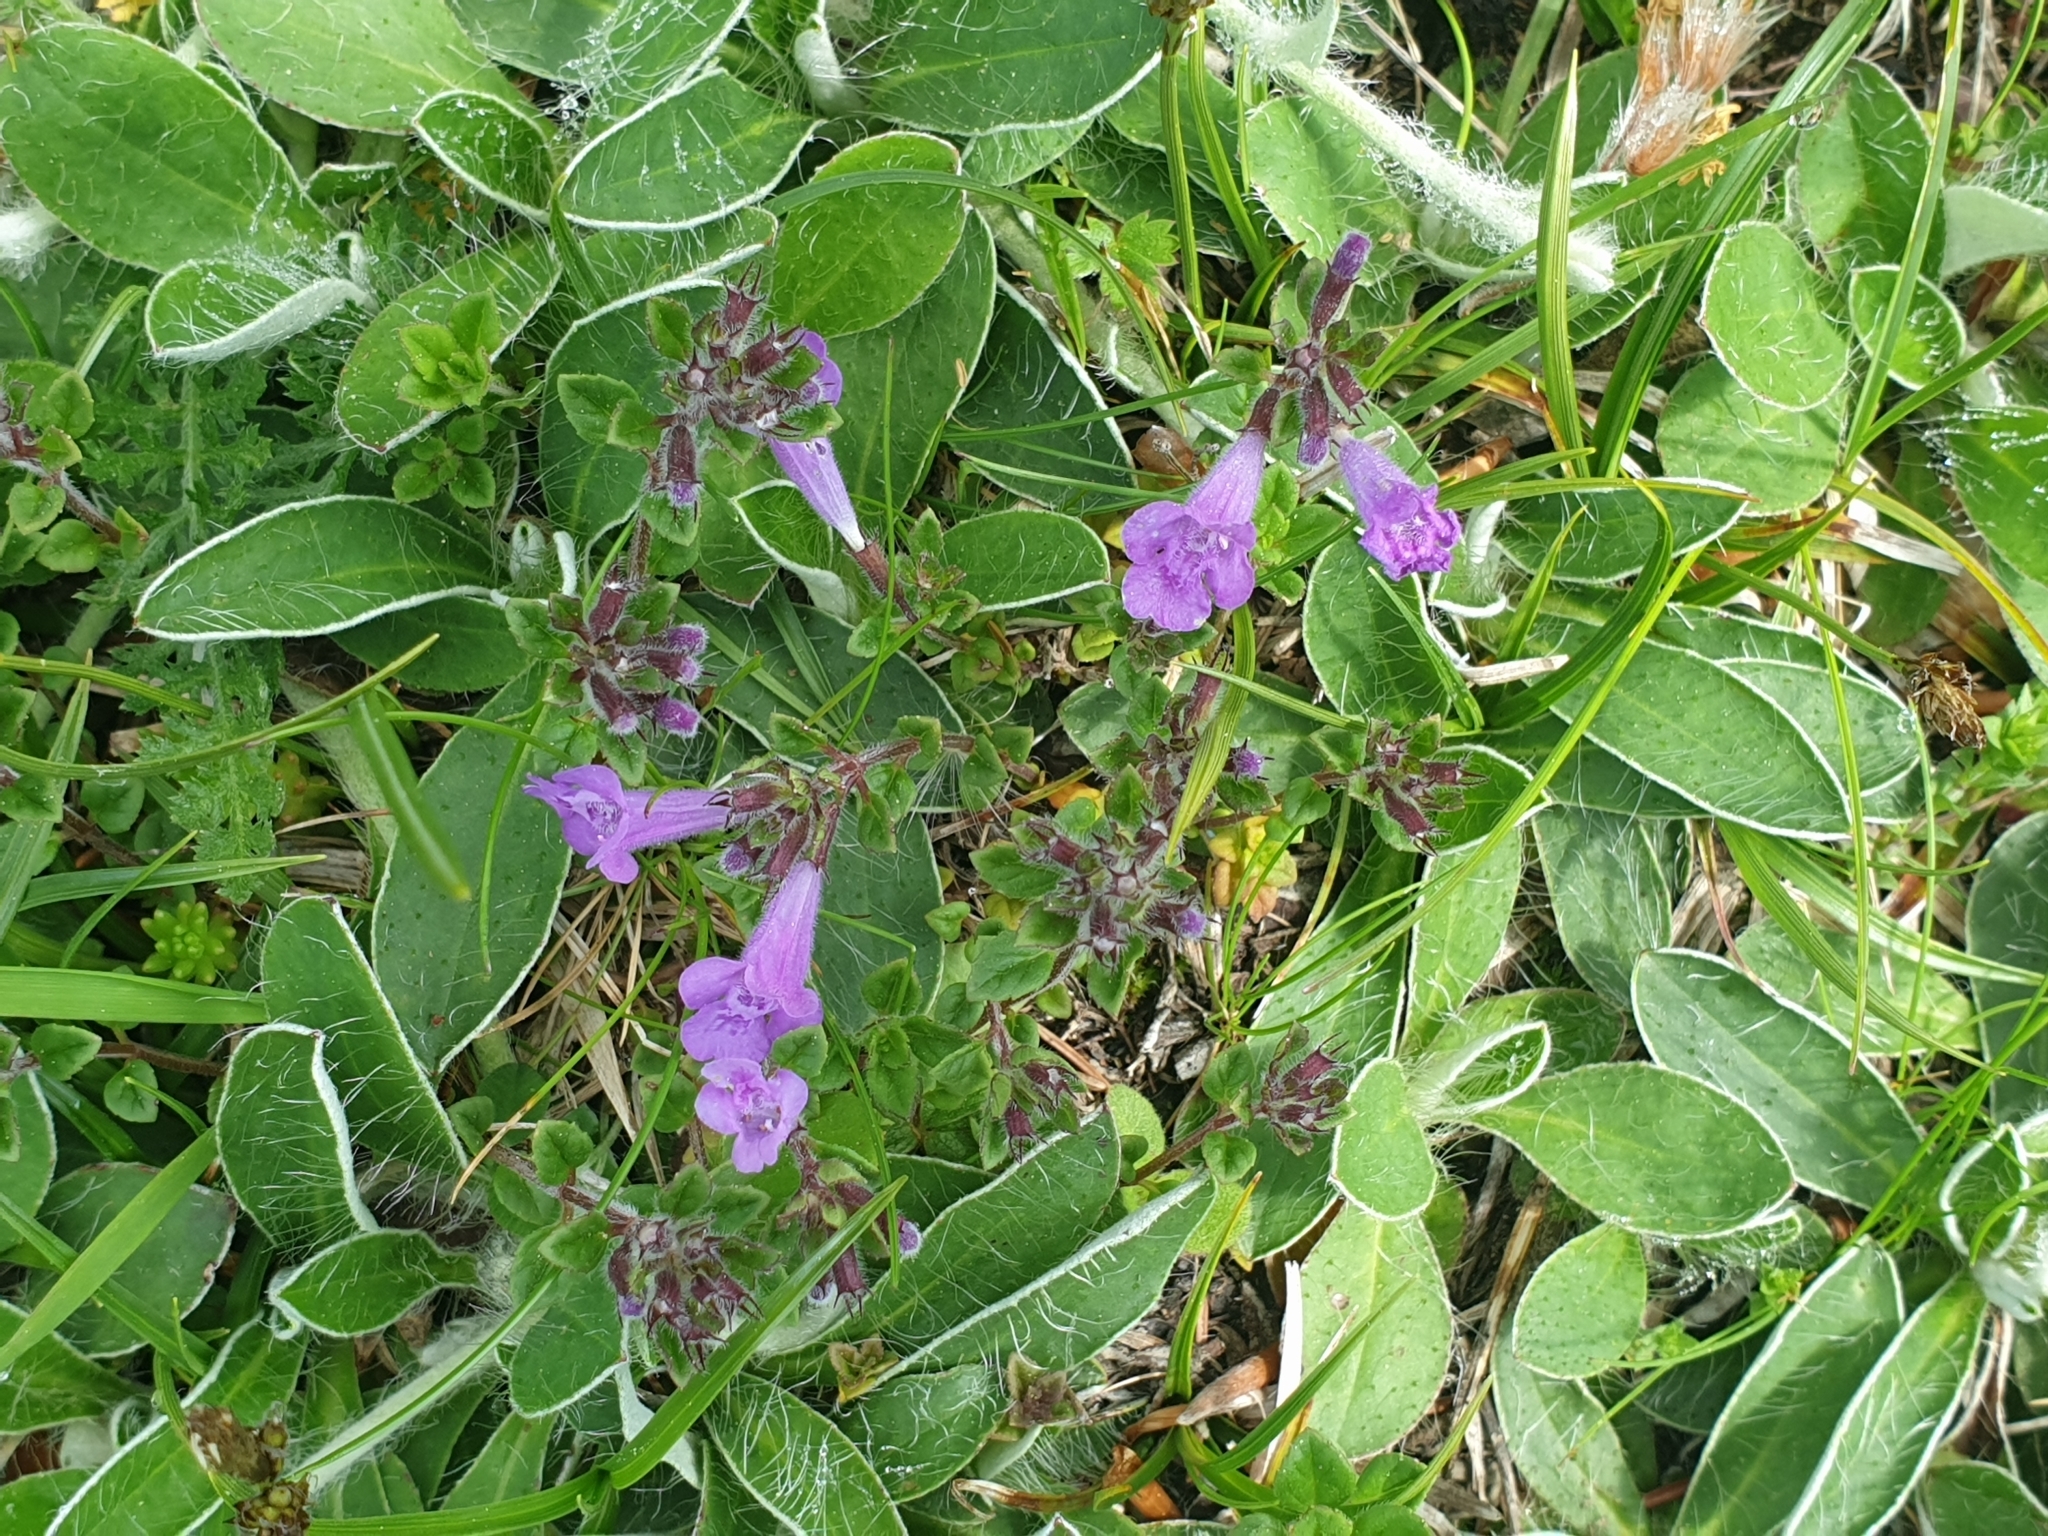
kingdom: Plantae
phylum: Tracheophyta
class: Magnoliopsida
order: Lamiales
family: Lamiaceae
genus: Clinopodium
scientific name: Clinopodium alpinum
